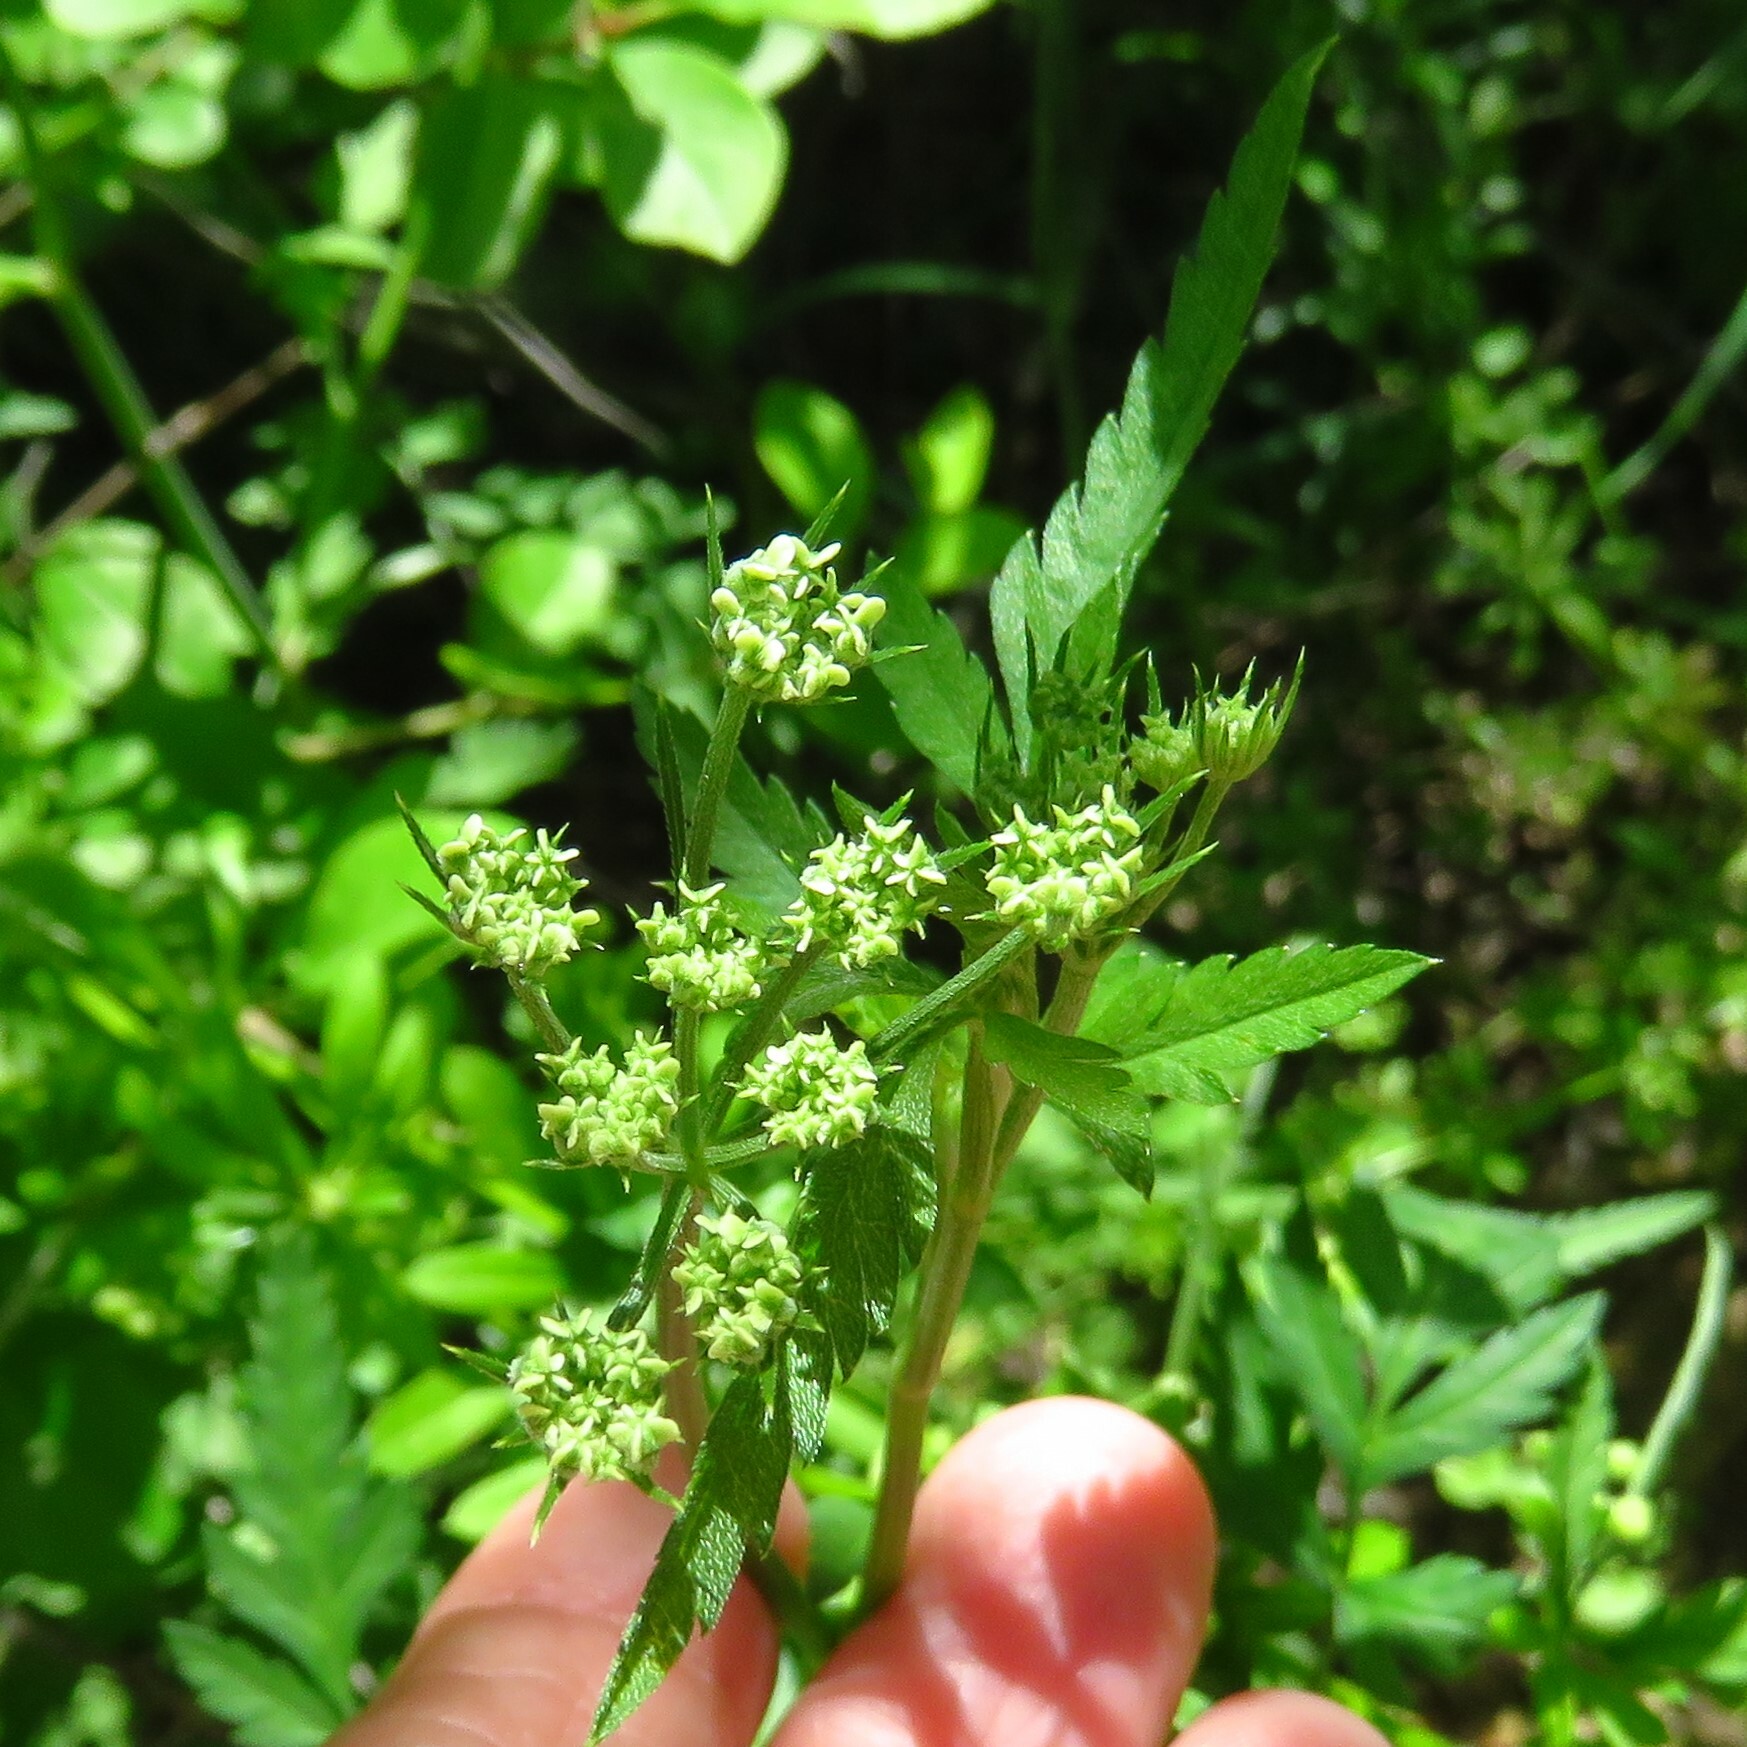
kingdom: Plantae
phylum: Tracheophyta
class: Magnoliopsida
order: Apiales
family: Apiaceae
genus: Torilis
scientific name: Torilis arvensis
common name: Spreading hedge-parsley
